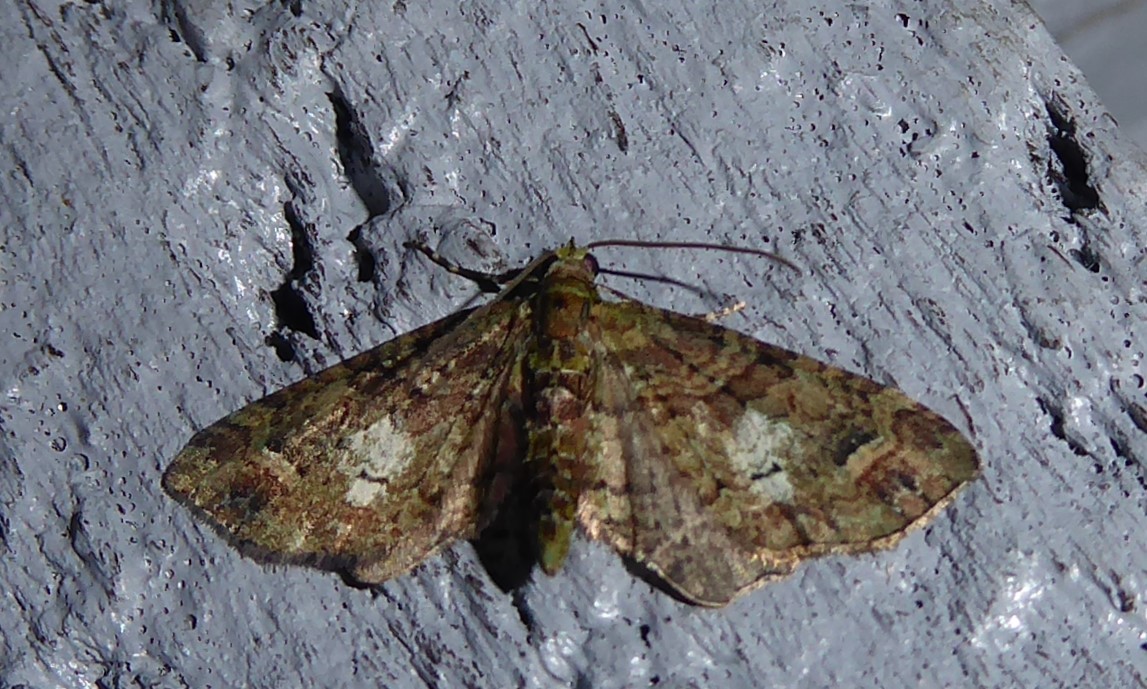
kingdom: Animalia
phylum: Arthropoda
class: Insecta
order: Lepidoptera
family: Geometridae
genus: Idaea
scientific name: Idaea mutanda
